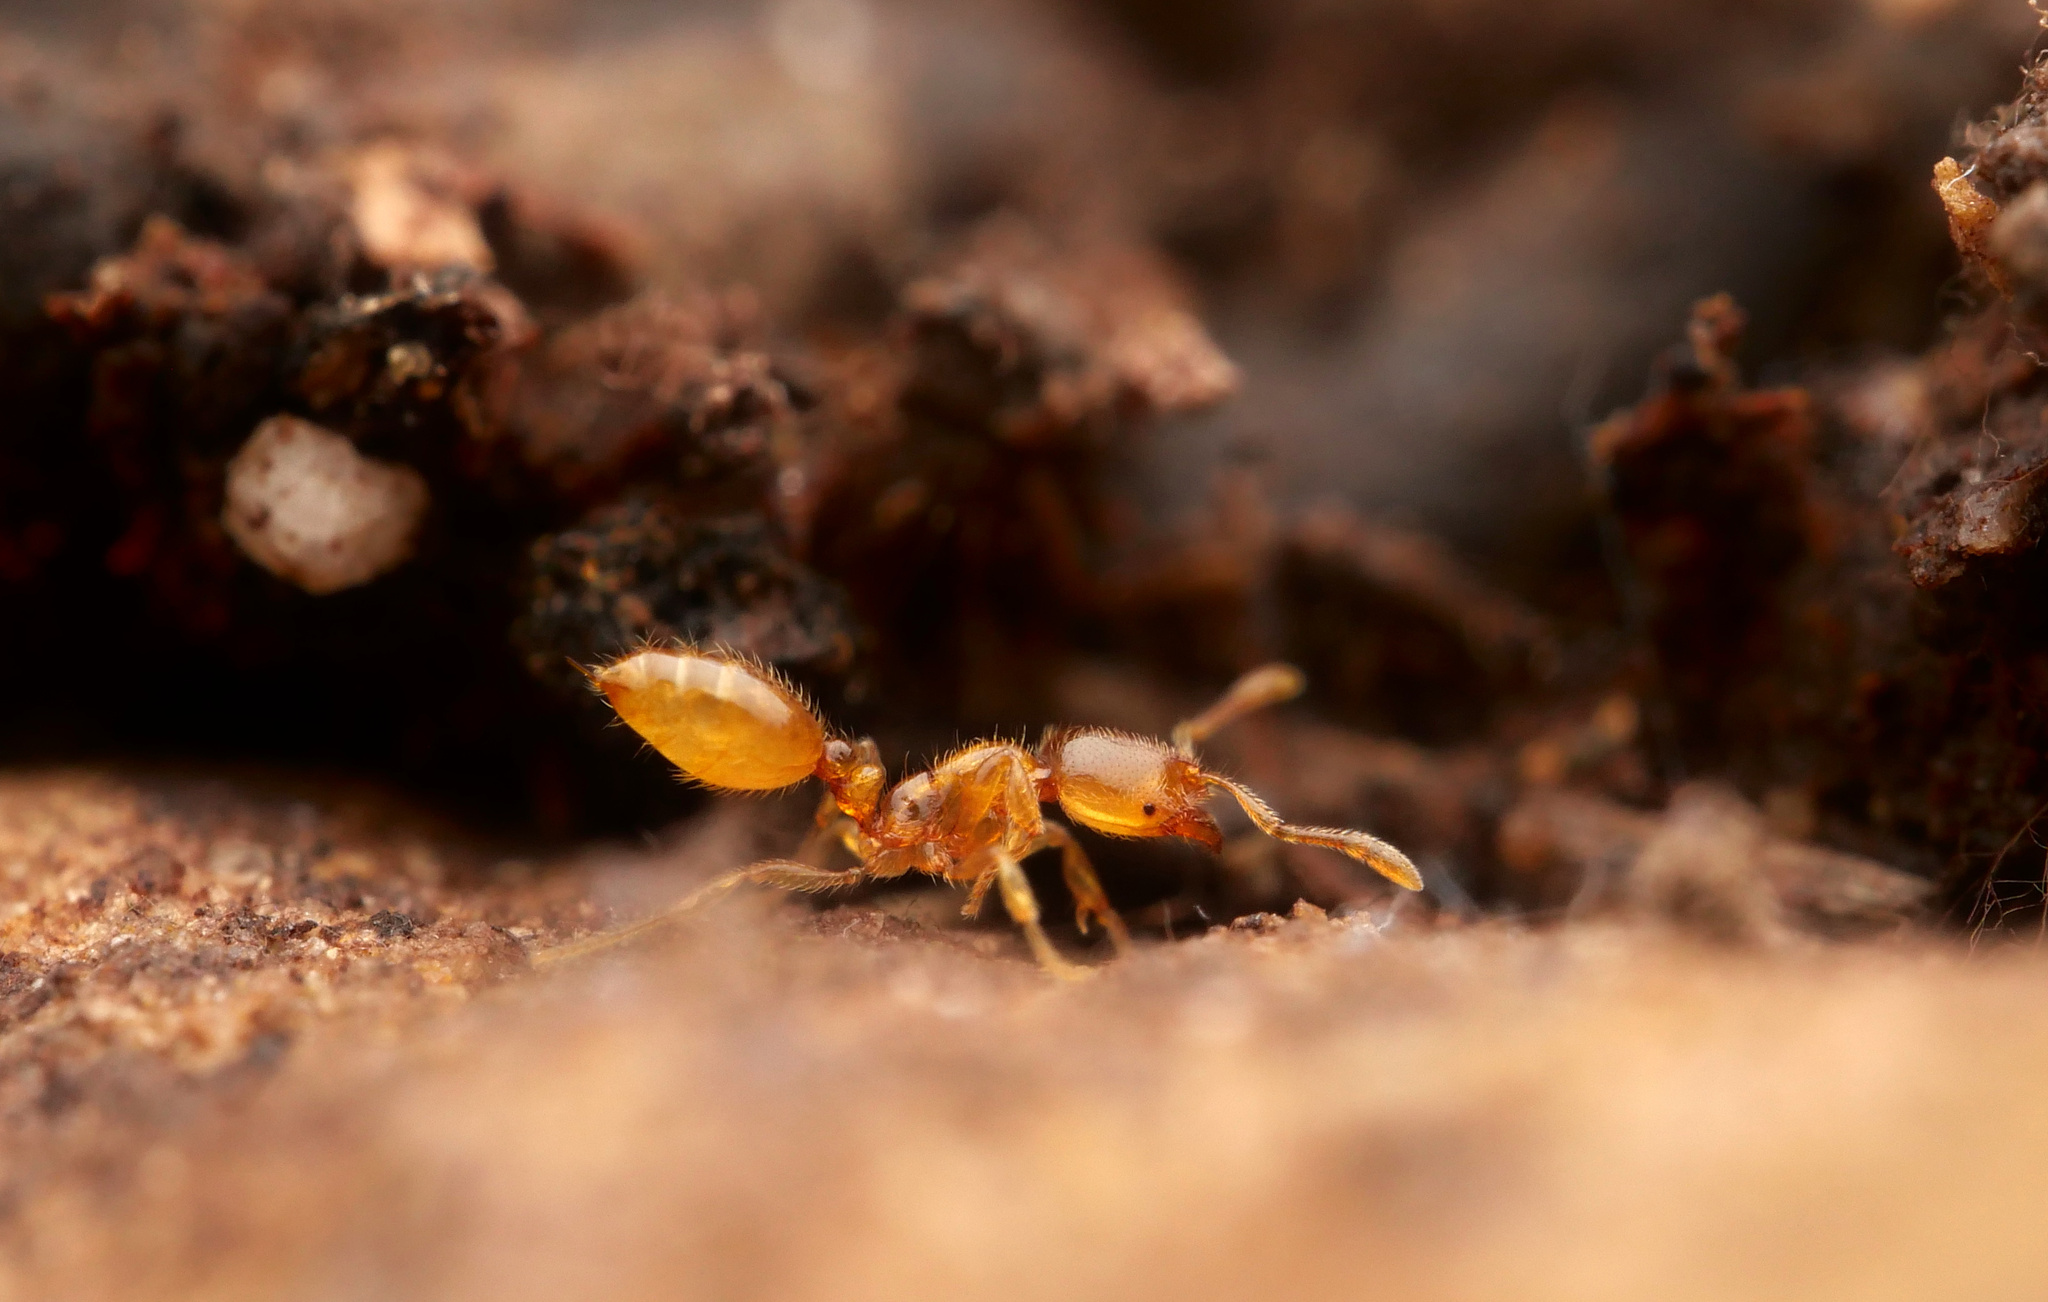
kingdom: Animalia
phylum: Arthropoda
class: Insecta
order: Hymenoptera
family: Formicidae
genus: Solenopsis
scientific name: Solenopsis fugax
